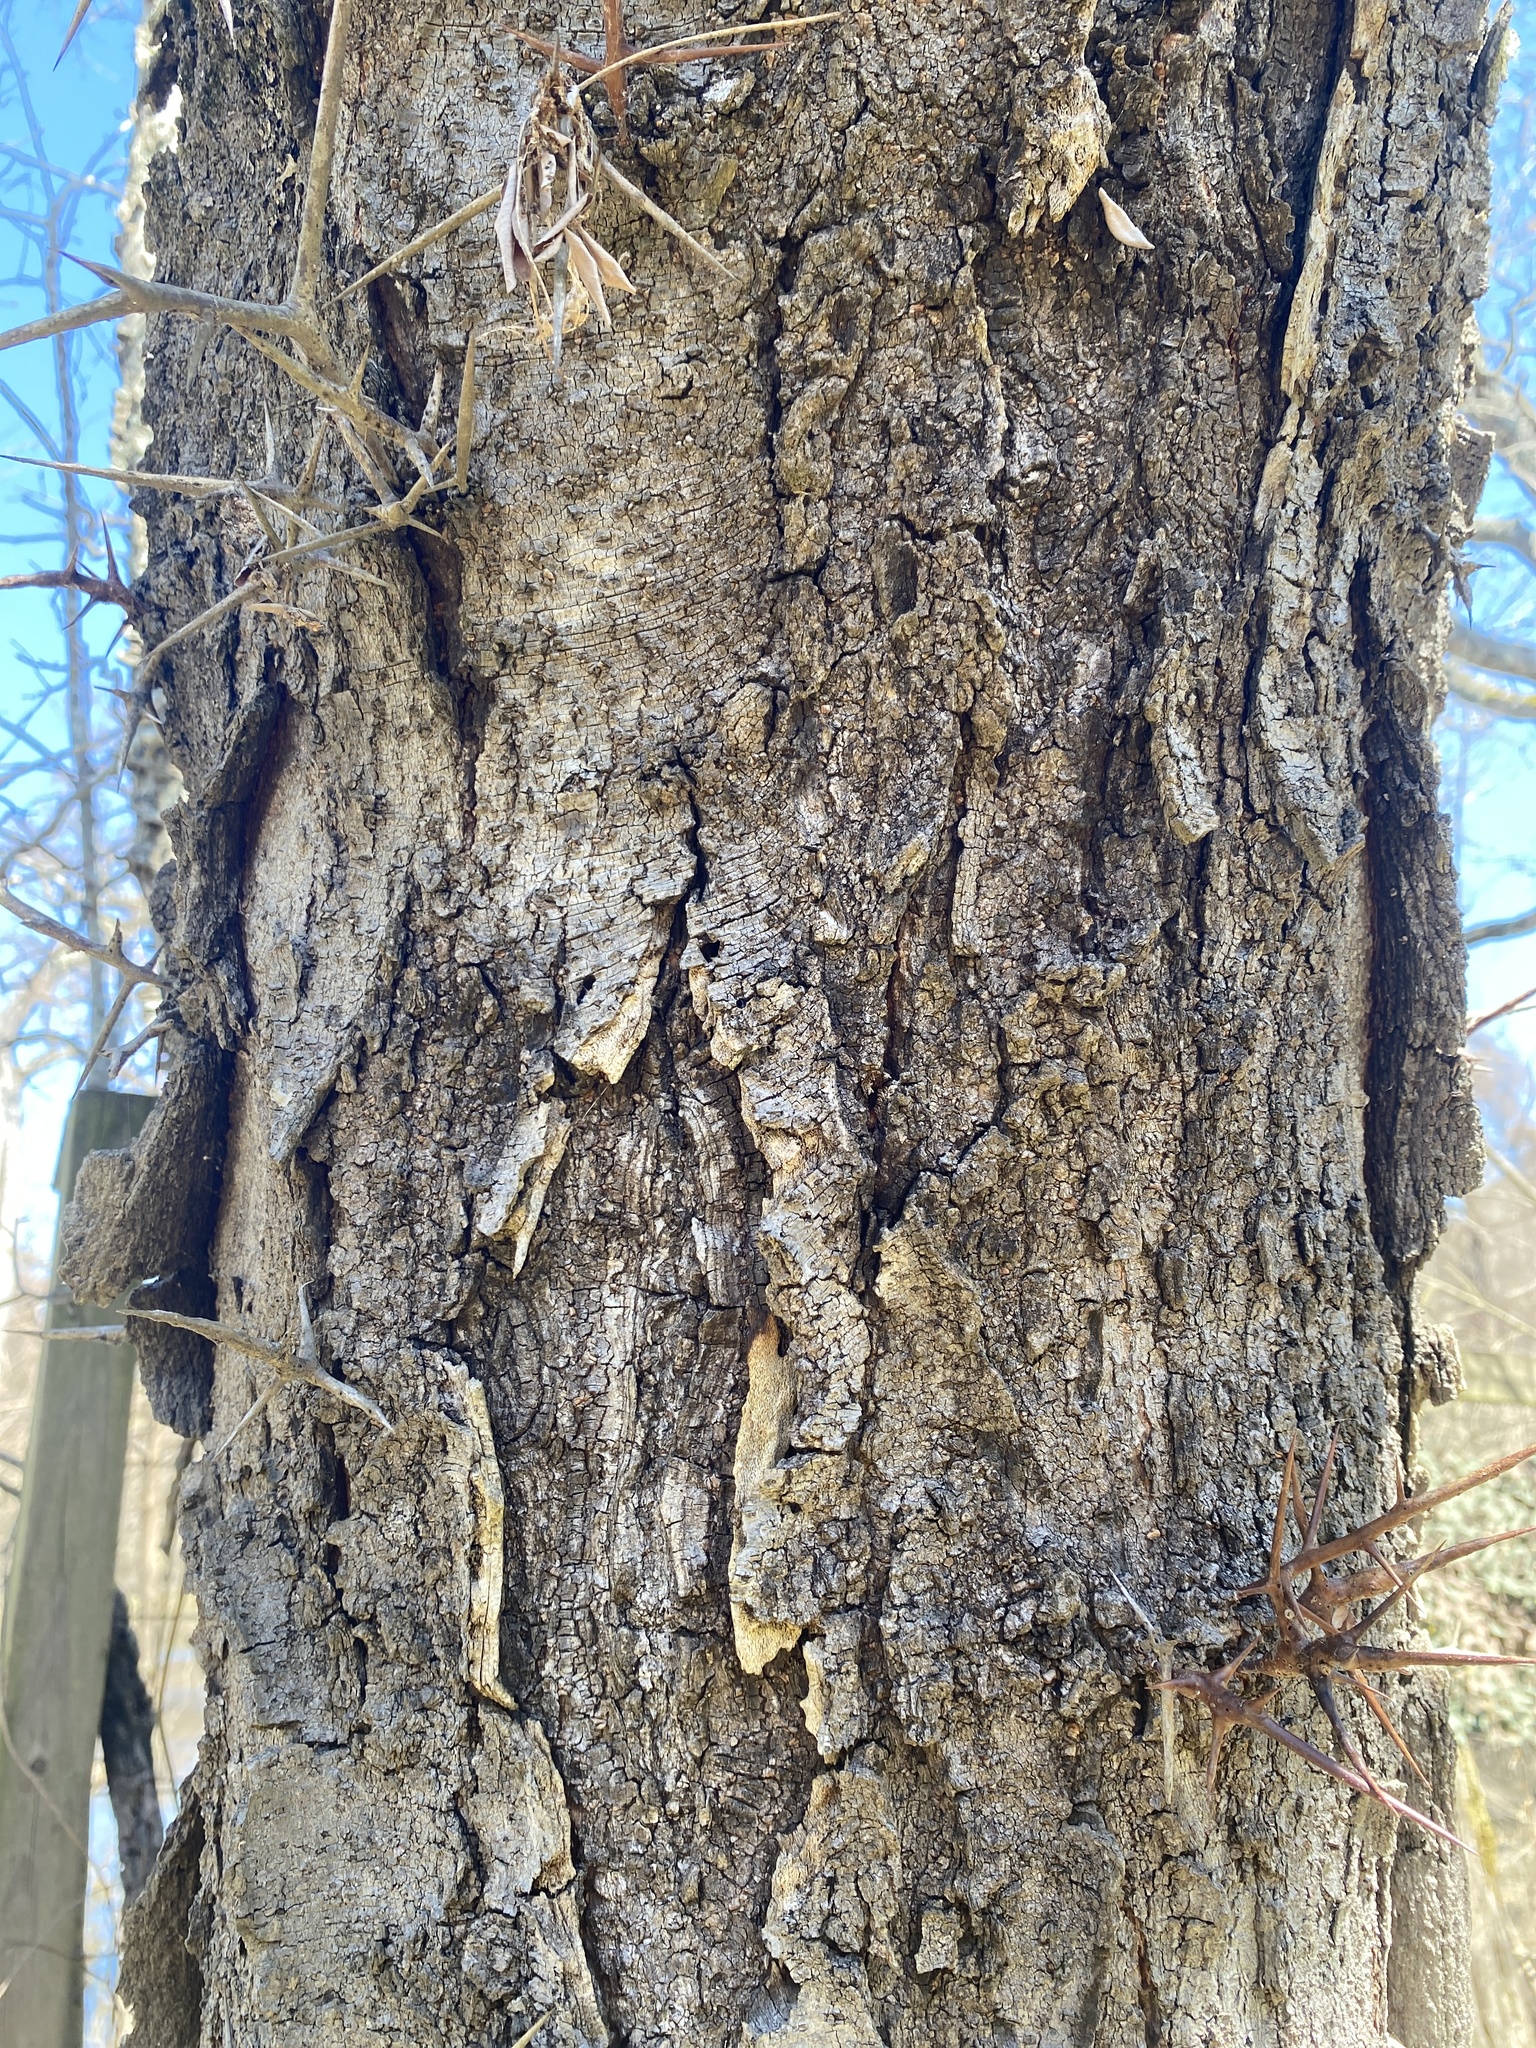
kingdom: Plantae
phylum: Tracheophyta
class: Magnoliopsida
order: Fabales
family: Fabaceae
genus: Gleditsia
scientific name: Gleditsia triacanthos
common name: Common honeylocust
